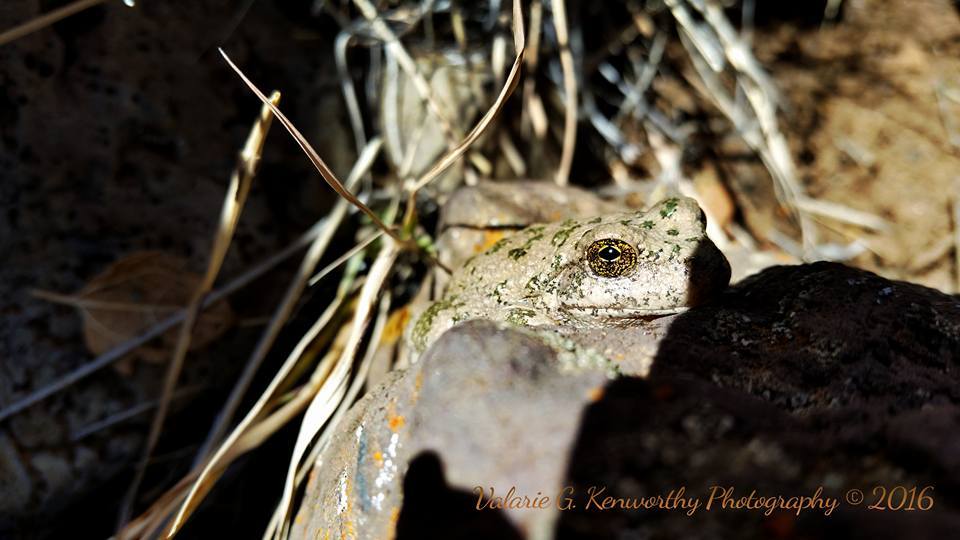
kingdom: Animalia
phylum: Chordata
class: Amphibia
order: Anura
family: Hylidae
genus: Dryophytes
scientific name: Dryophytes arenicolor
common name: Canyon treefrog
